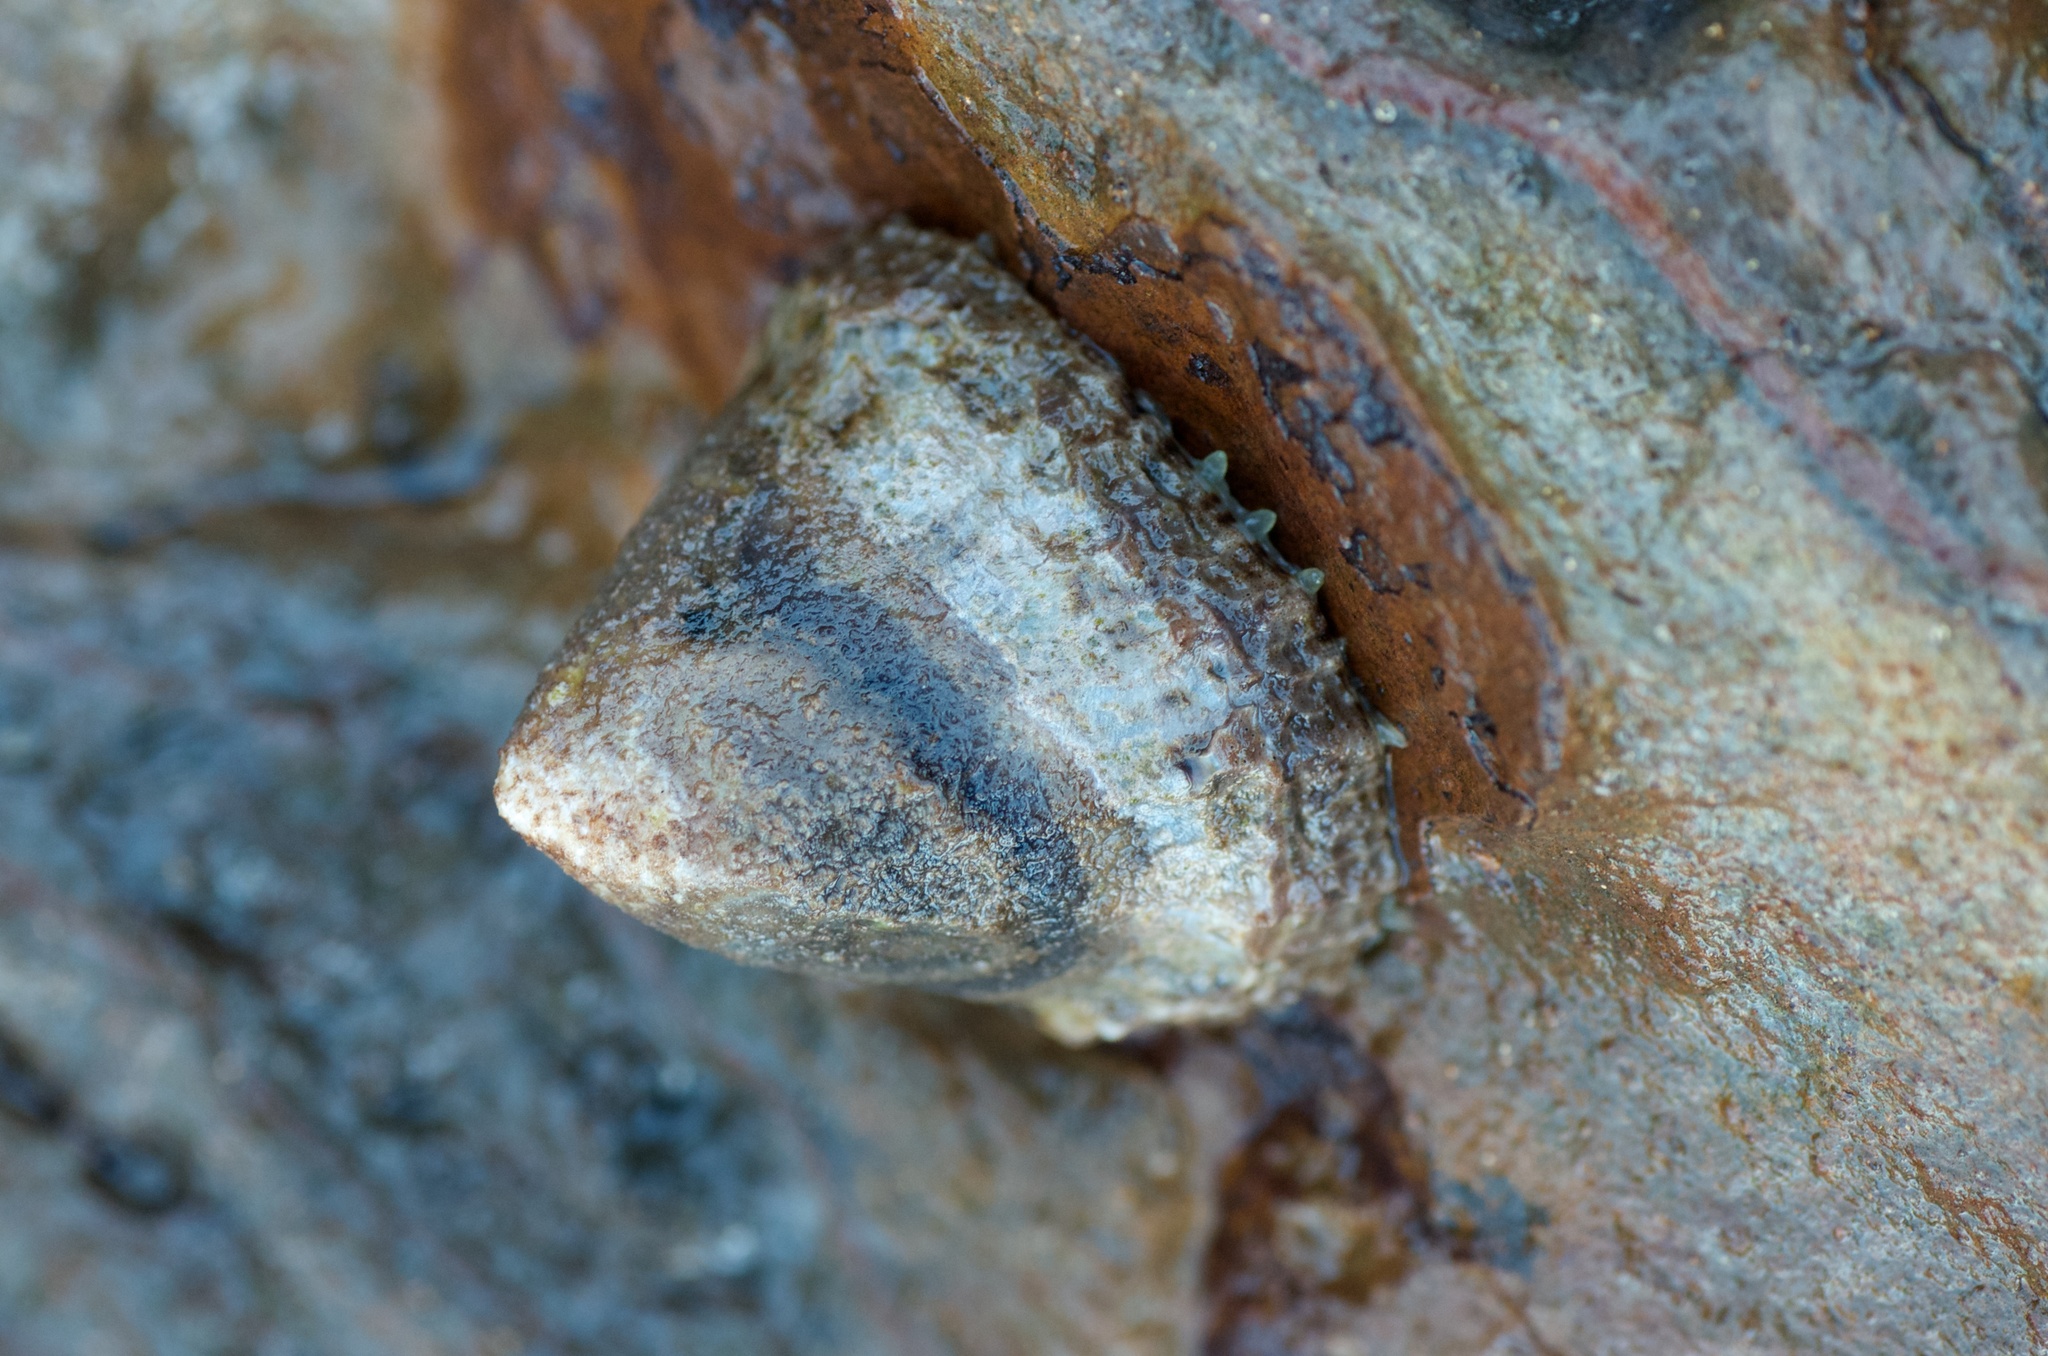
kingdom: Animalia
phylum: Mollusca
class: Gastropoda
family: Nacellidae
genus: Cellana
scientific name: Cellana ornata
